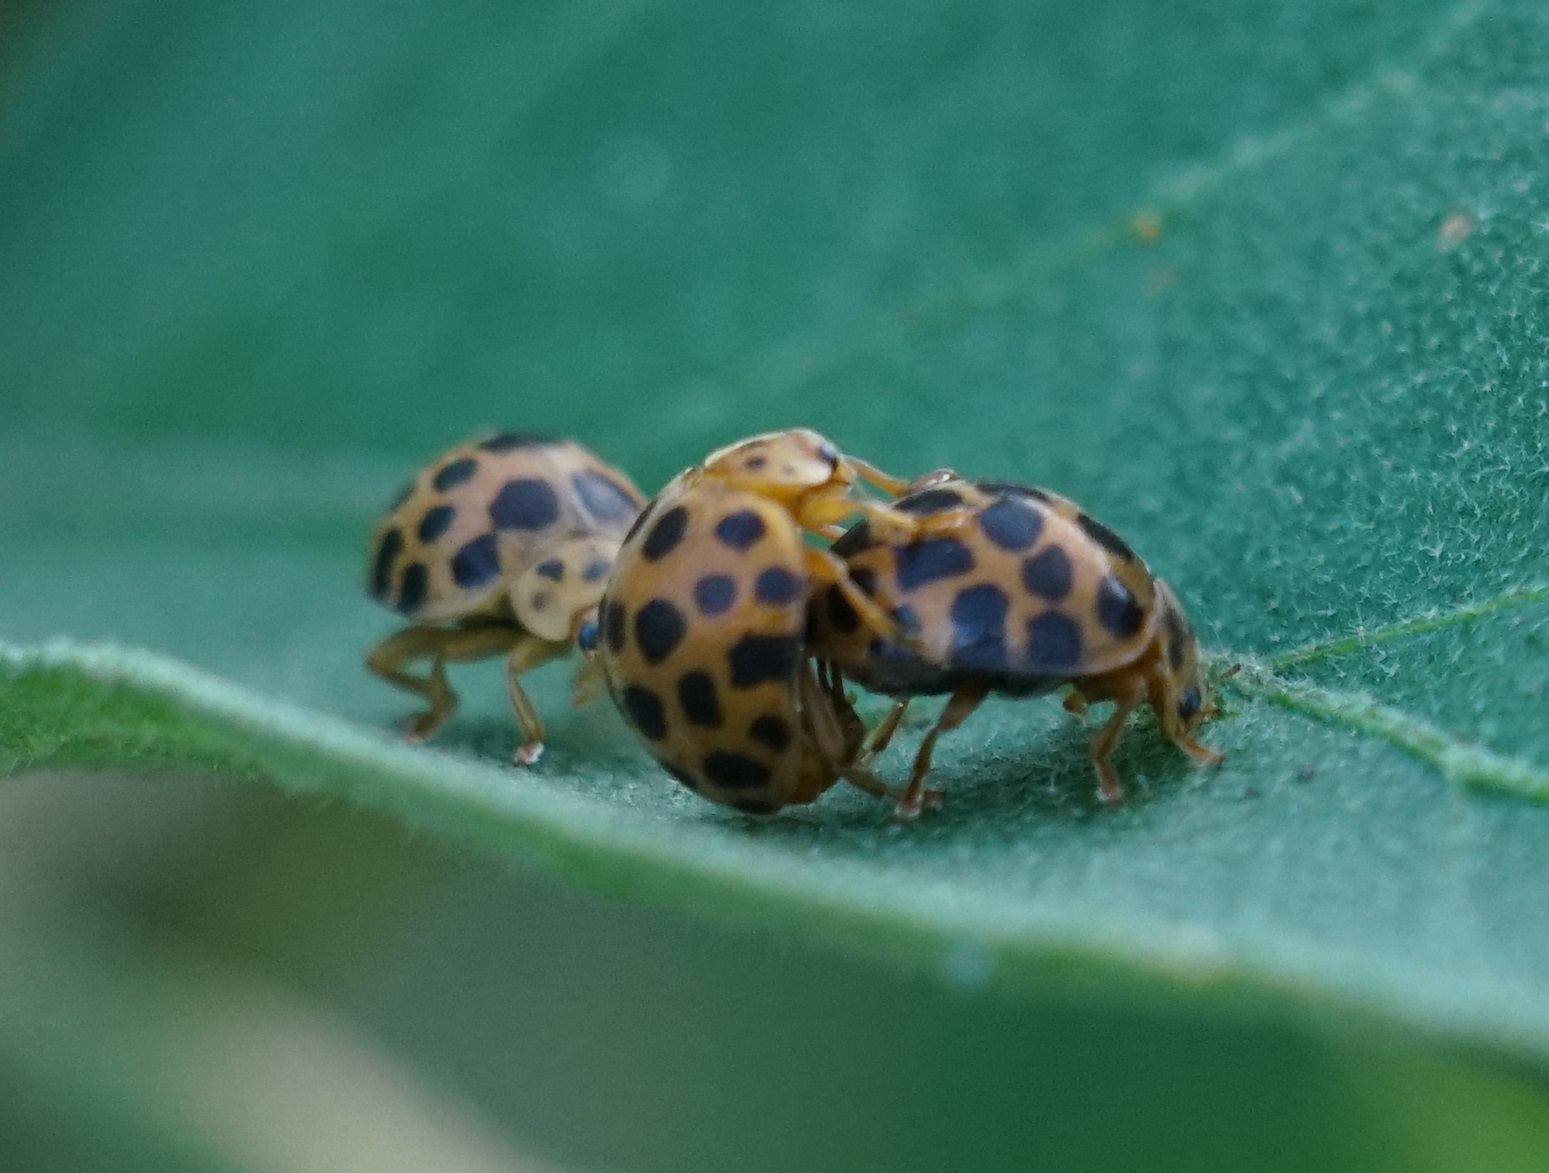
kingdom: Animalia
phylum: Arthropoda
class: Insecta
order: Coleoptera
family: Coccinellidae
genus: Henosepilachna
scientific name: Henosepilachna vigintioctopunctata
